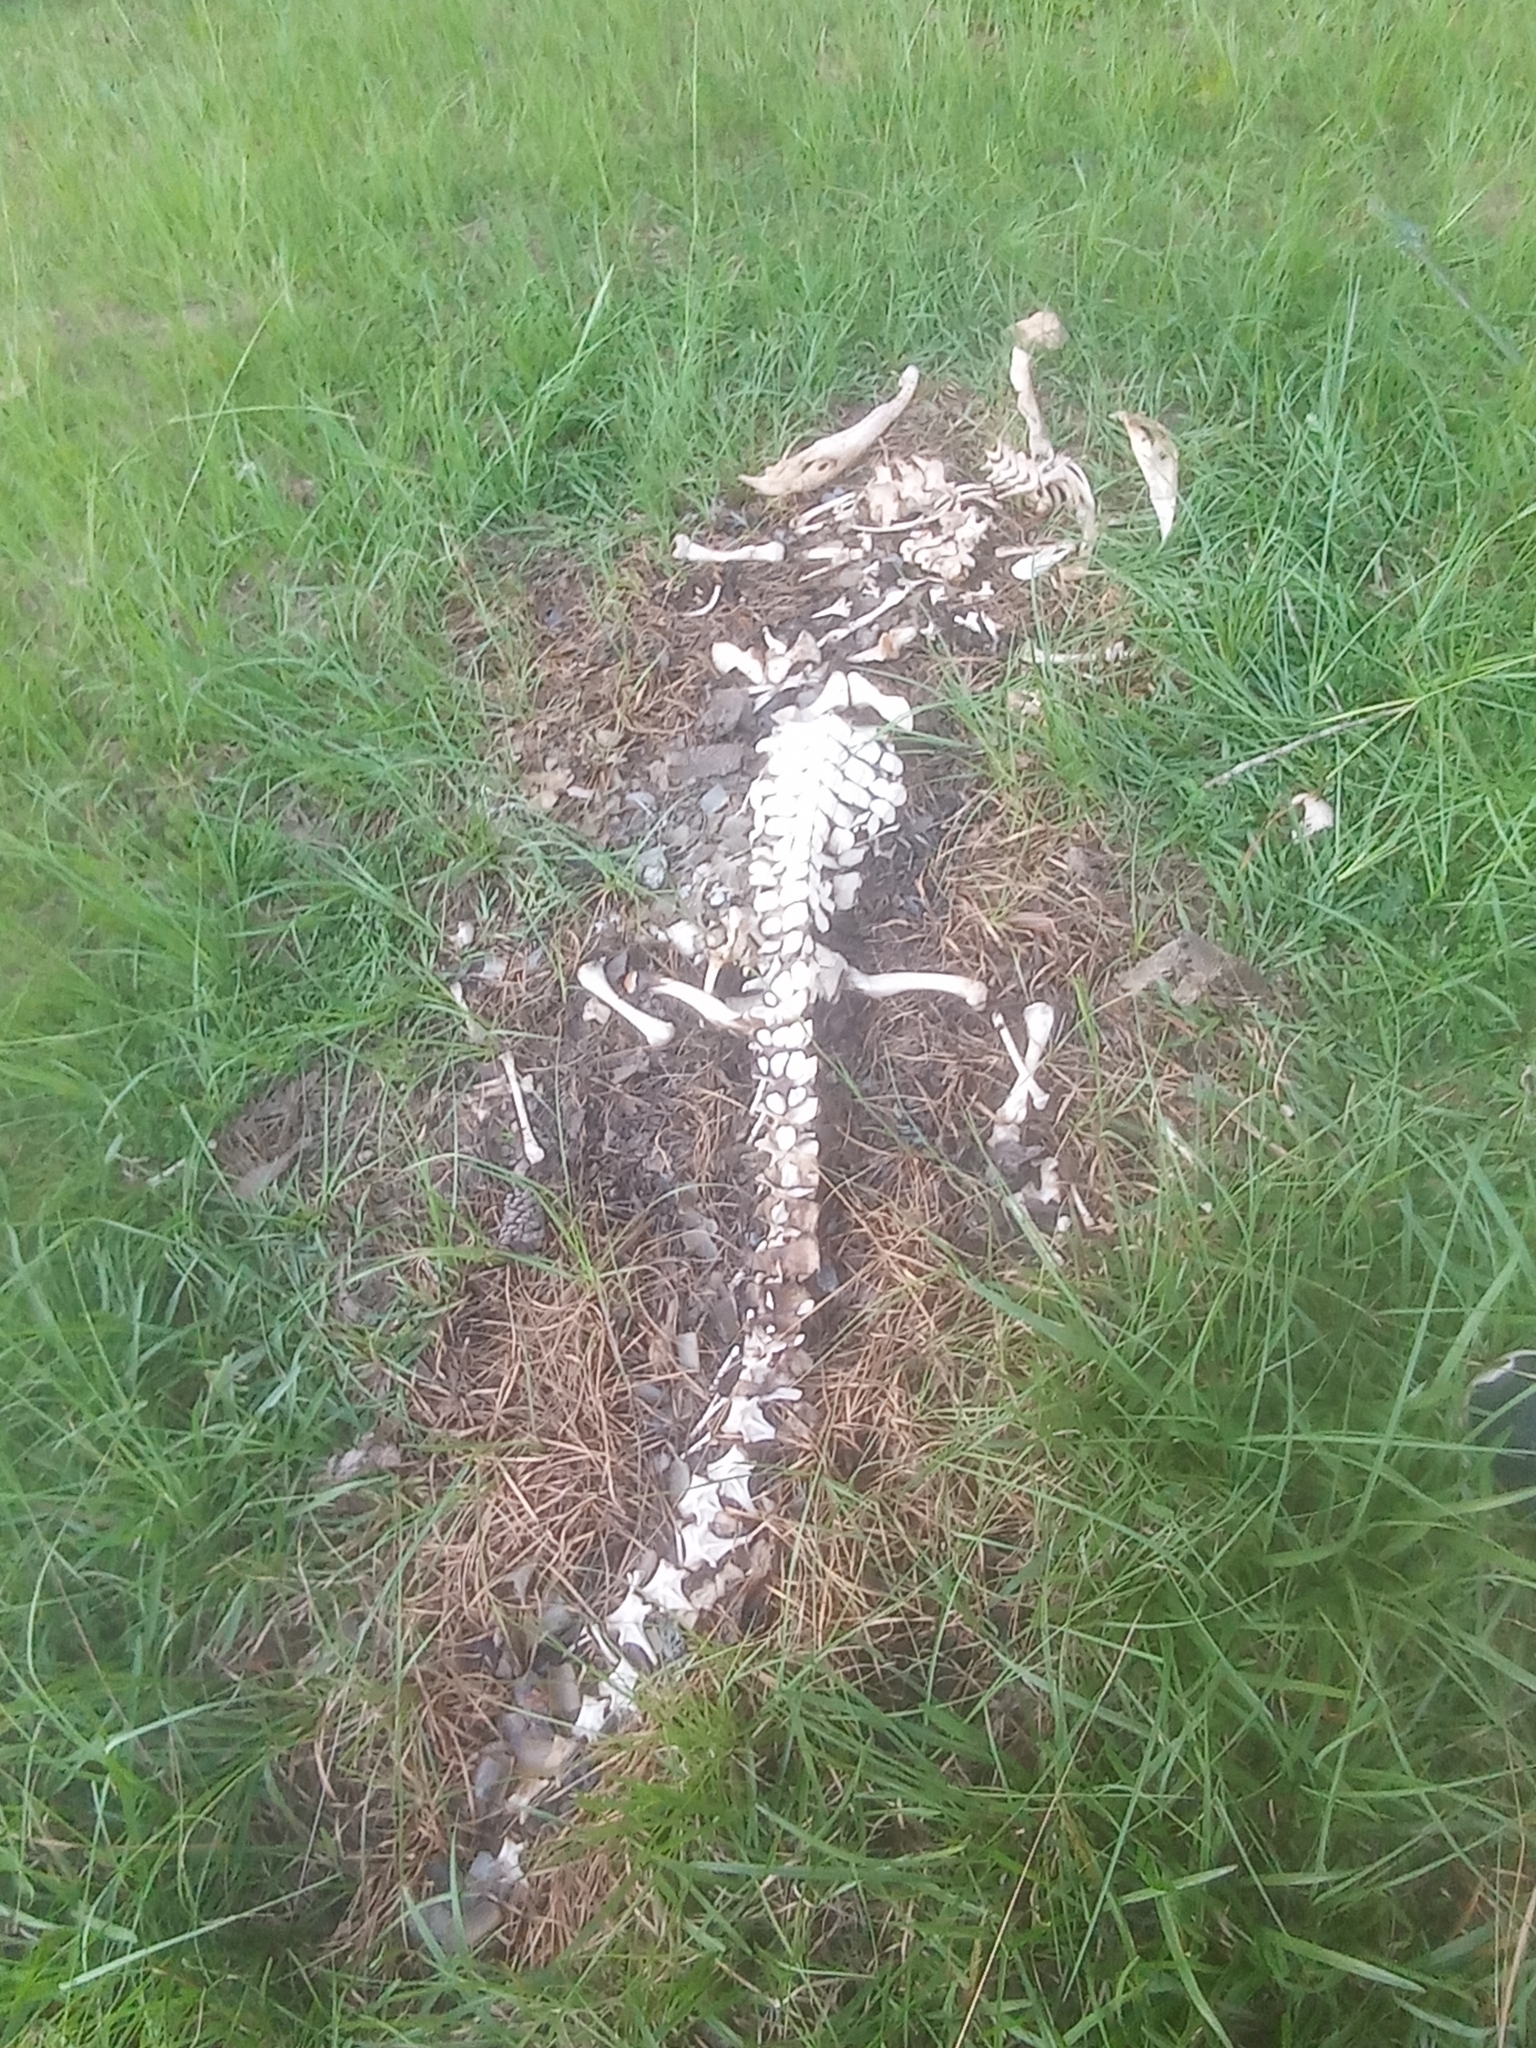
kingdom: Animalia
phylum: Chordata
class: Crocodylia
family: Alligatoridae
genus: Alligator
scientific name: Alligator mississippiensis
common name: American alligator
